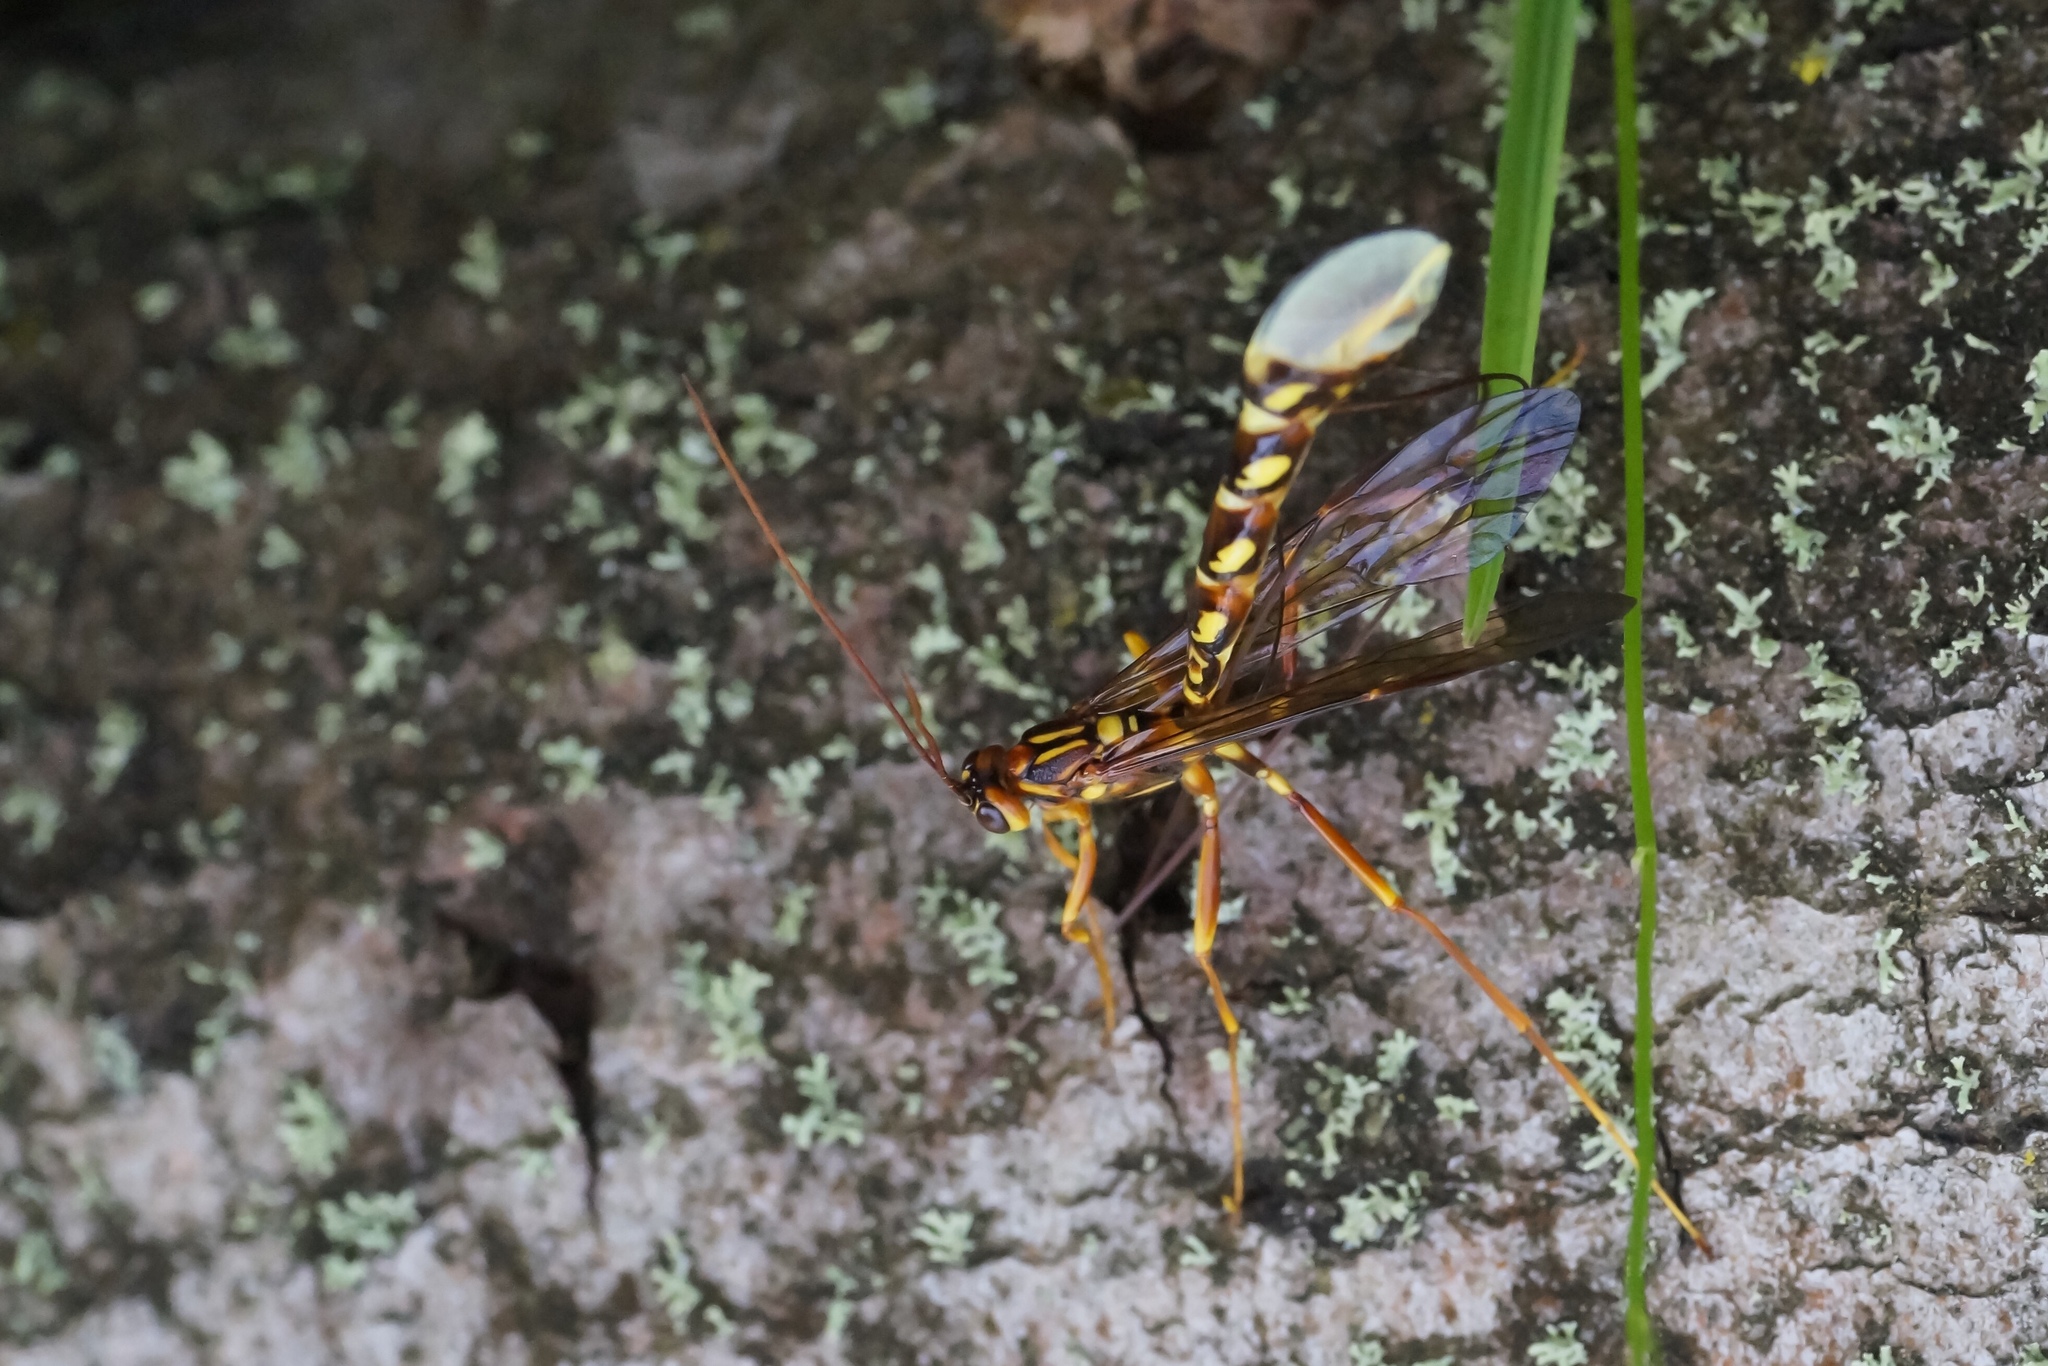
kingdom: Animalia
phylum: Arthropoda
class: Insecta
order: Hymenoptera
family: Ichneumonidae
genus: Megarhyssa
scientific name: Megarhyssa perlata
